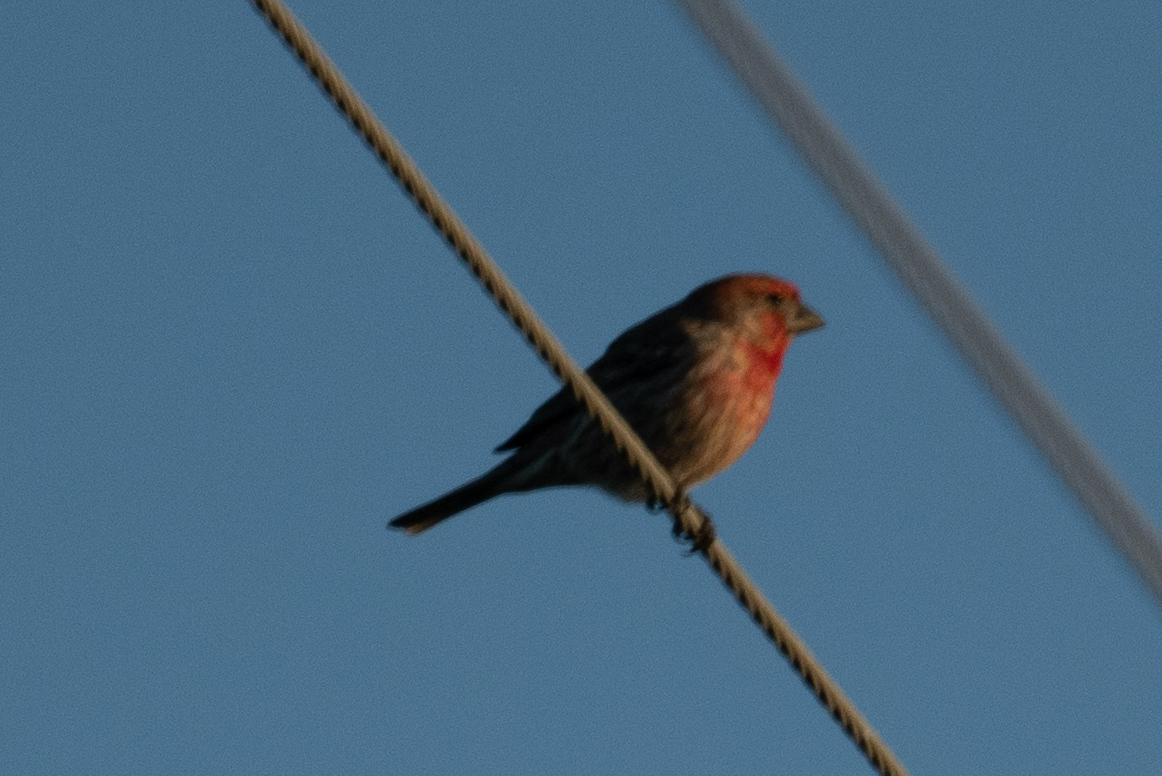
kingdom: Animalia
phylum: Chordata
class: Aves
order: Passeriformes
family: Fringillidae
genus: Haemorhous
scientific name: Haemorhous mexicanus
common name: House finch
